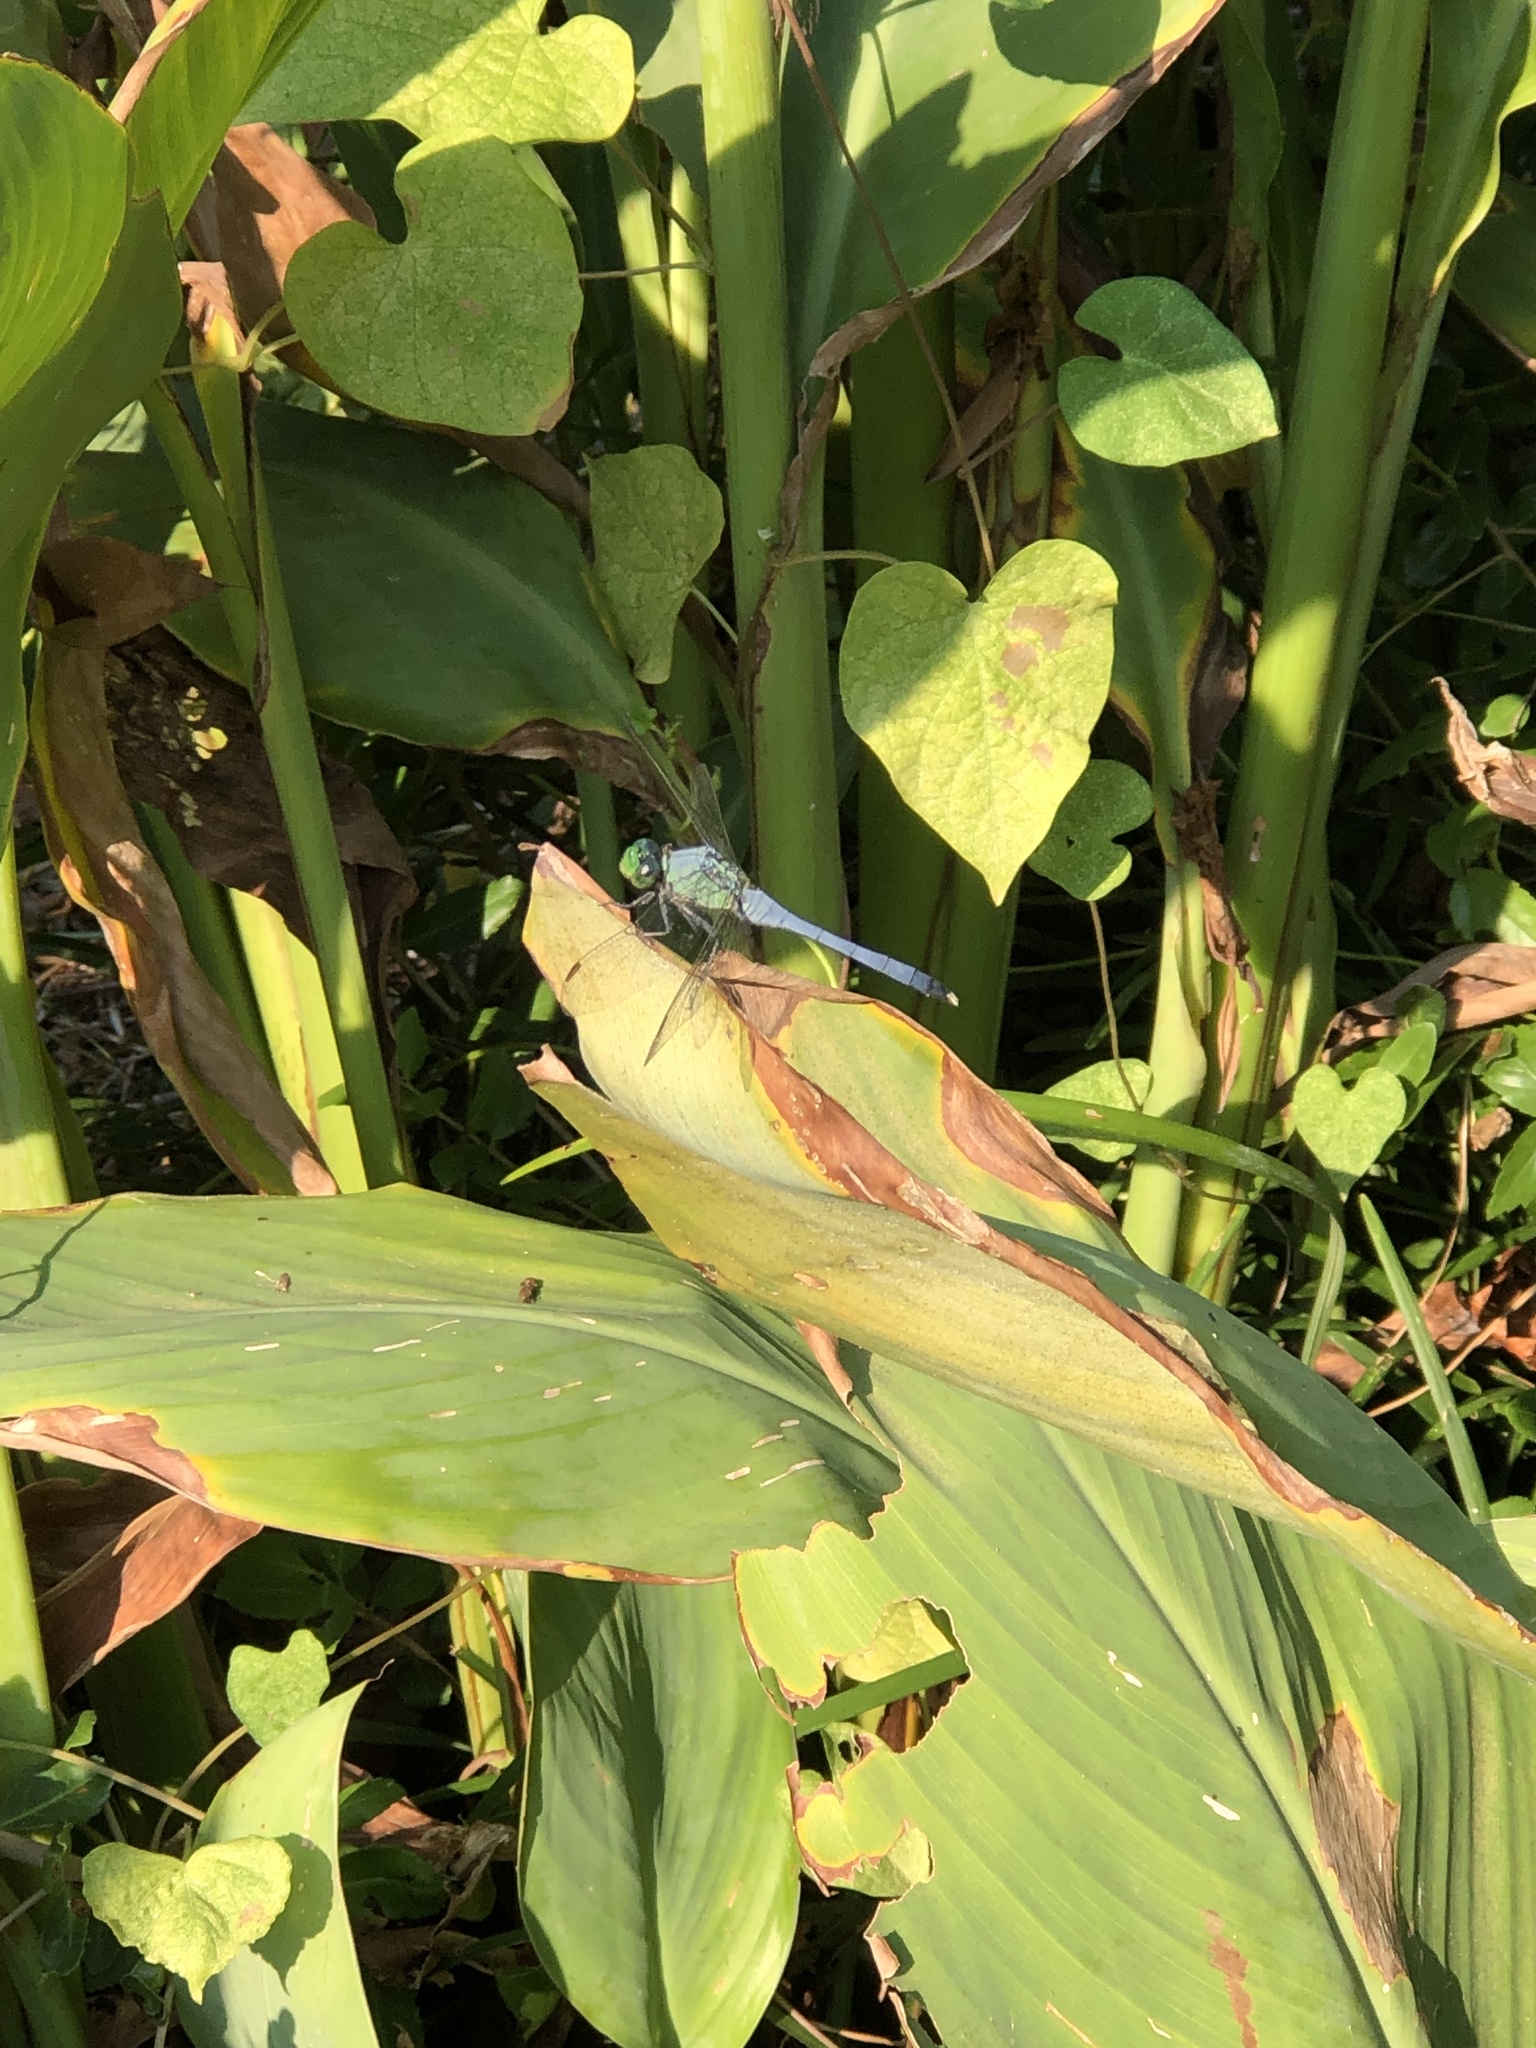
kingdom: Animalia
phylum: Arthropoda
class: Insecta
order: Odonata
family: Libellulidae
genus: Erythemis
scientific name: Erythemis simplicicollis
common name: Eastern pondhawk
